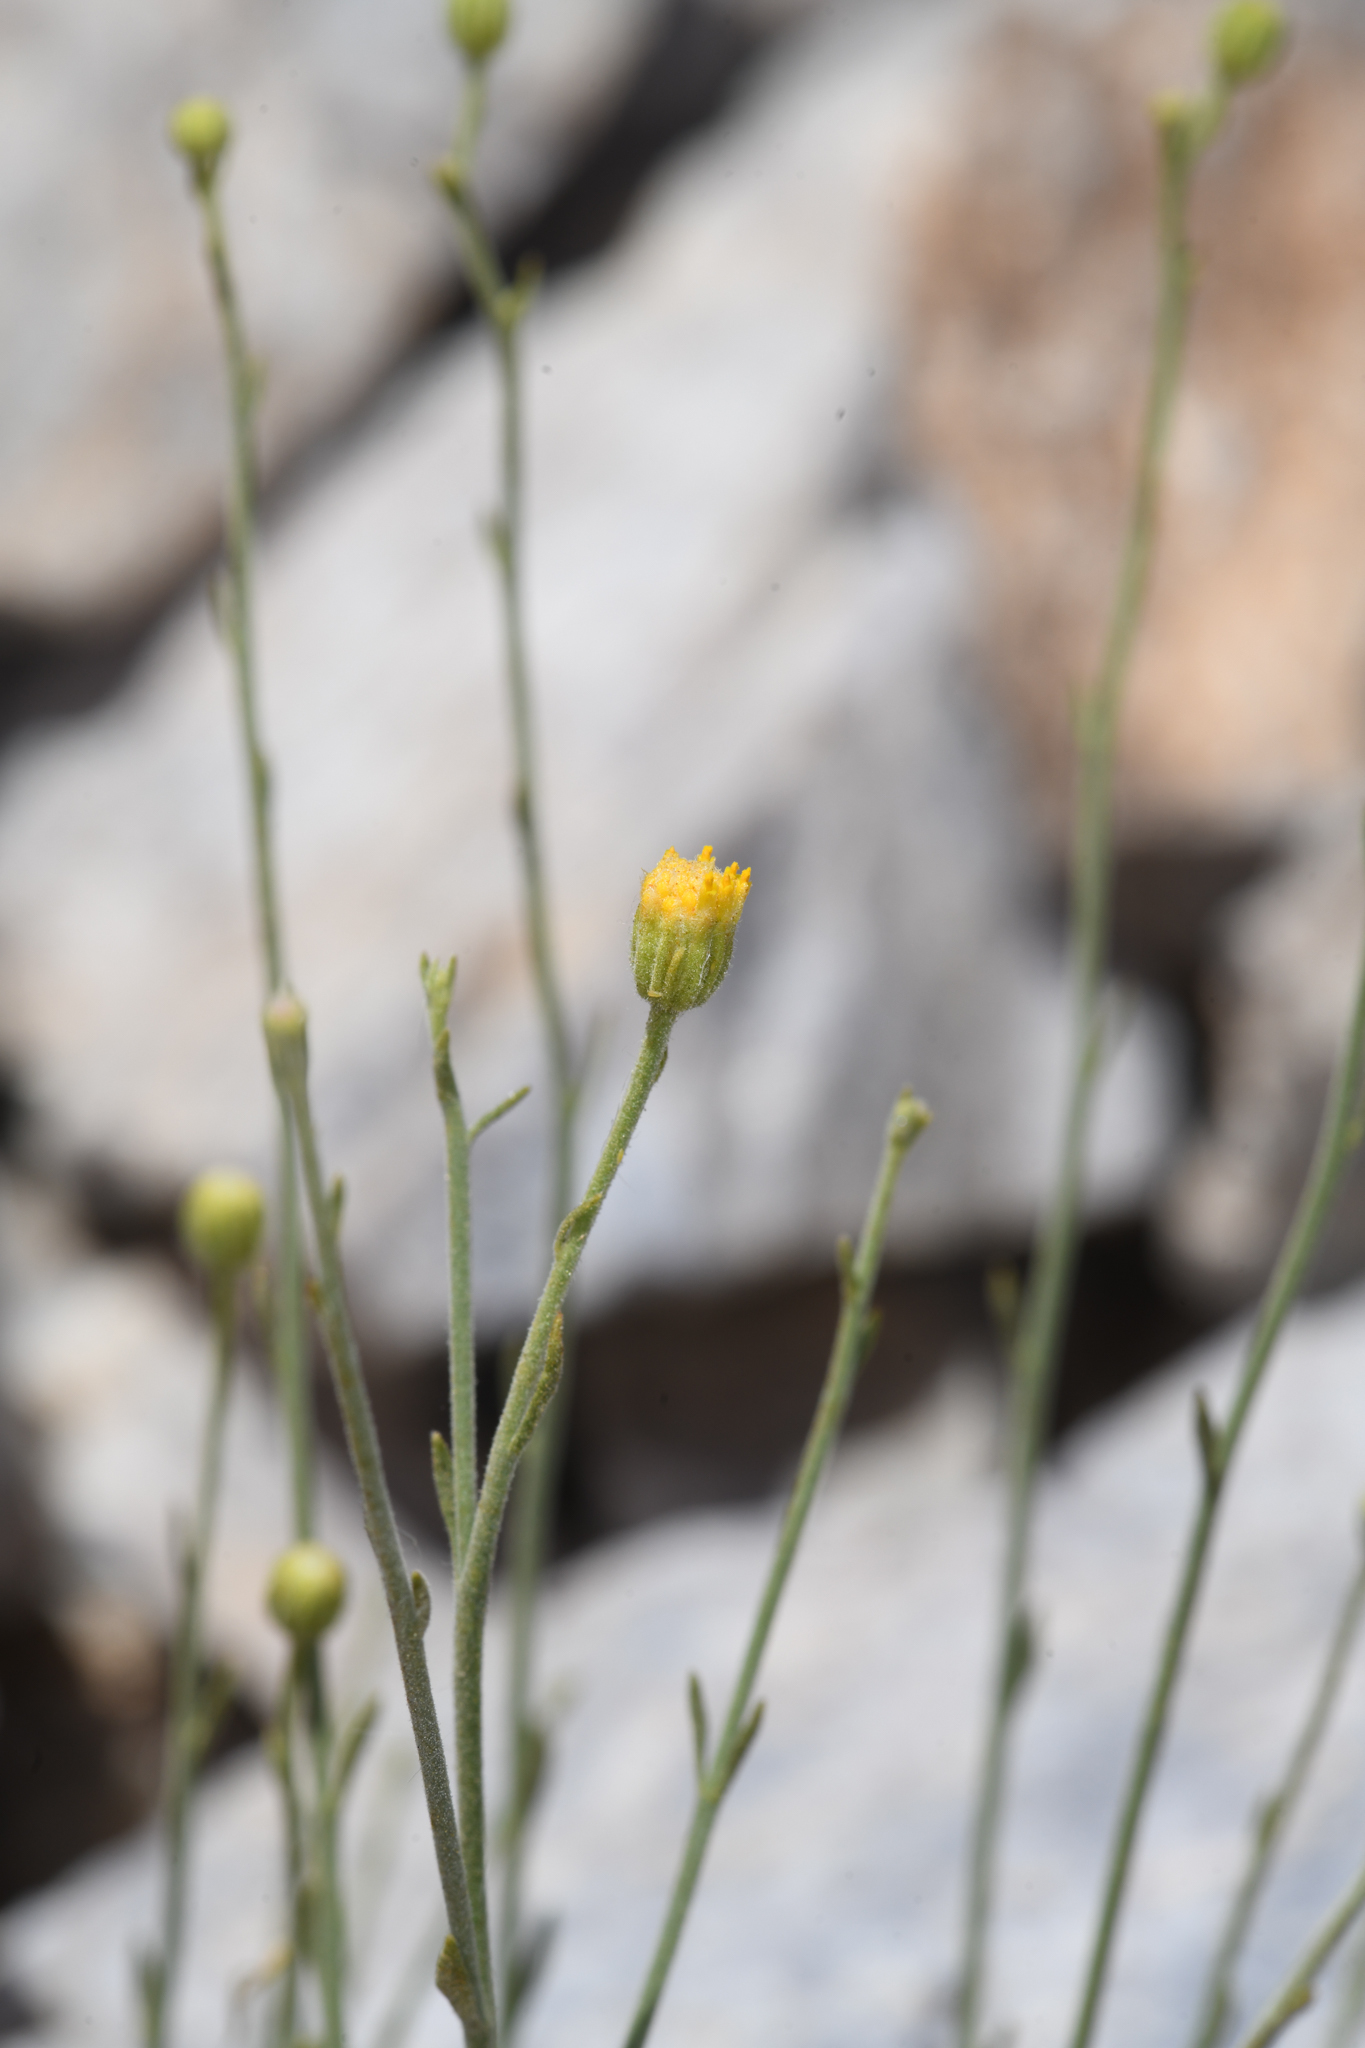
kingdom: Plantae
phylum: Tracheophyta
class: Magnoliopsida
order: Asterales
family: Asteraceae
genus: Laphamia
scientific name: Laphamia megalocephala
